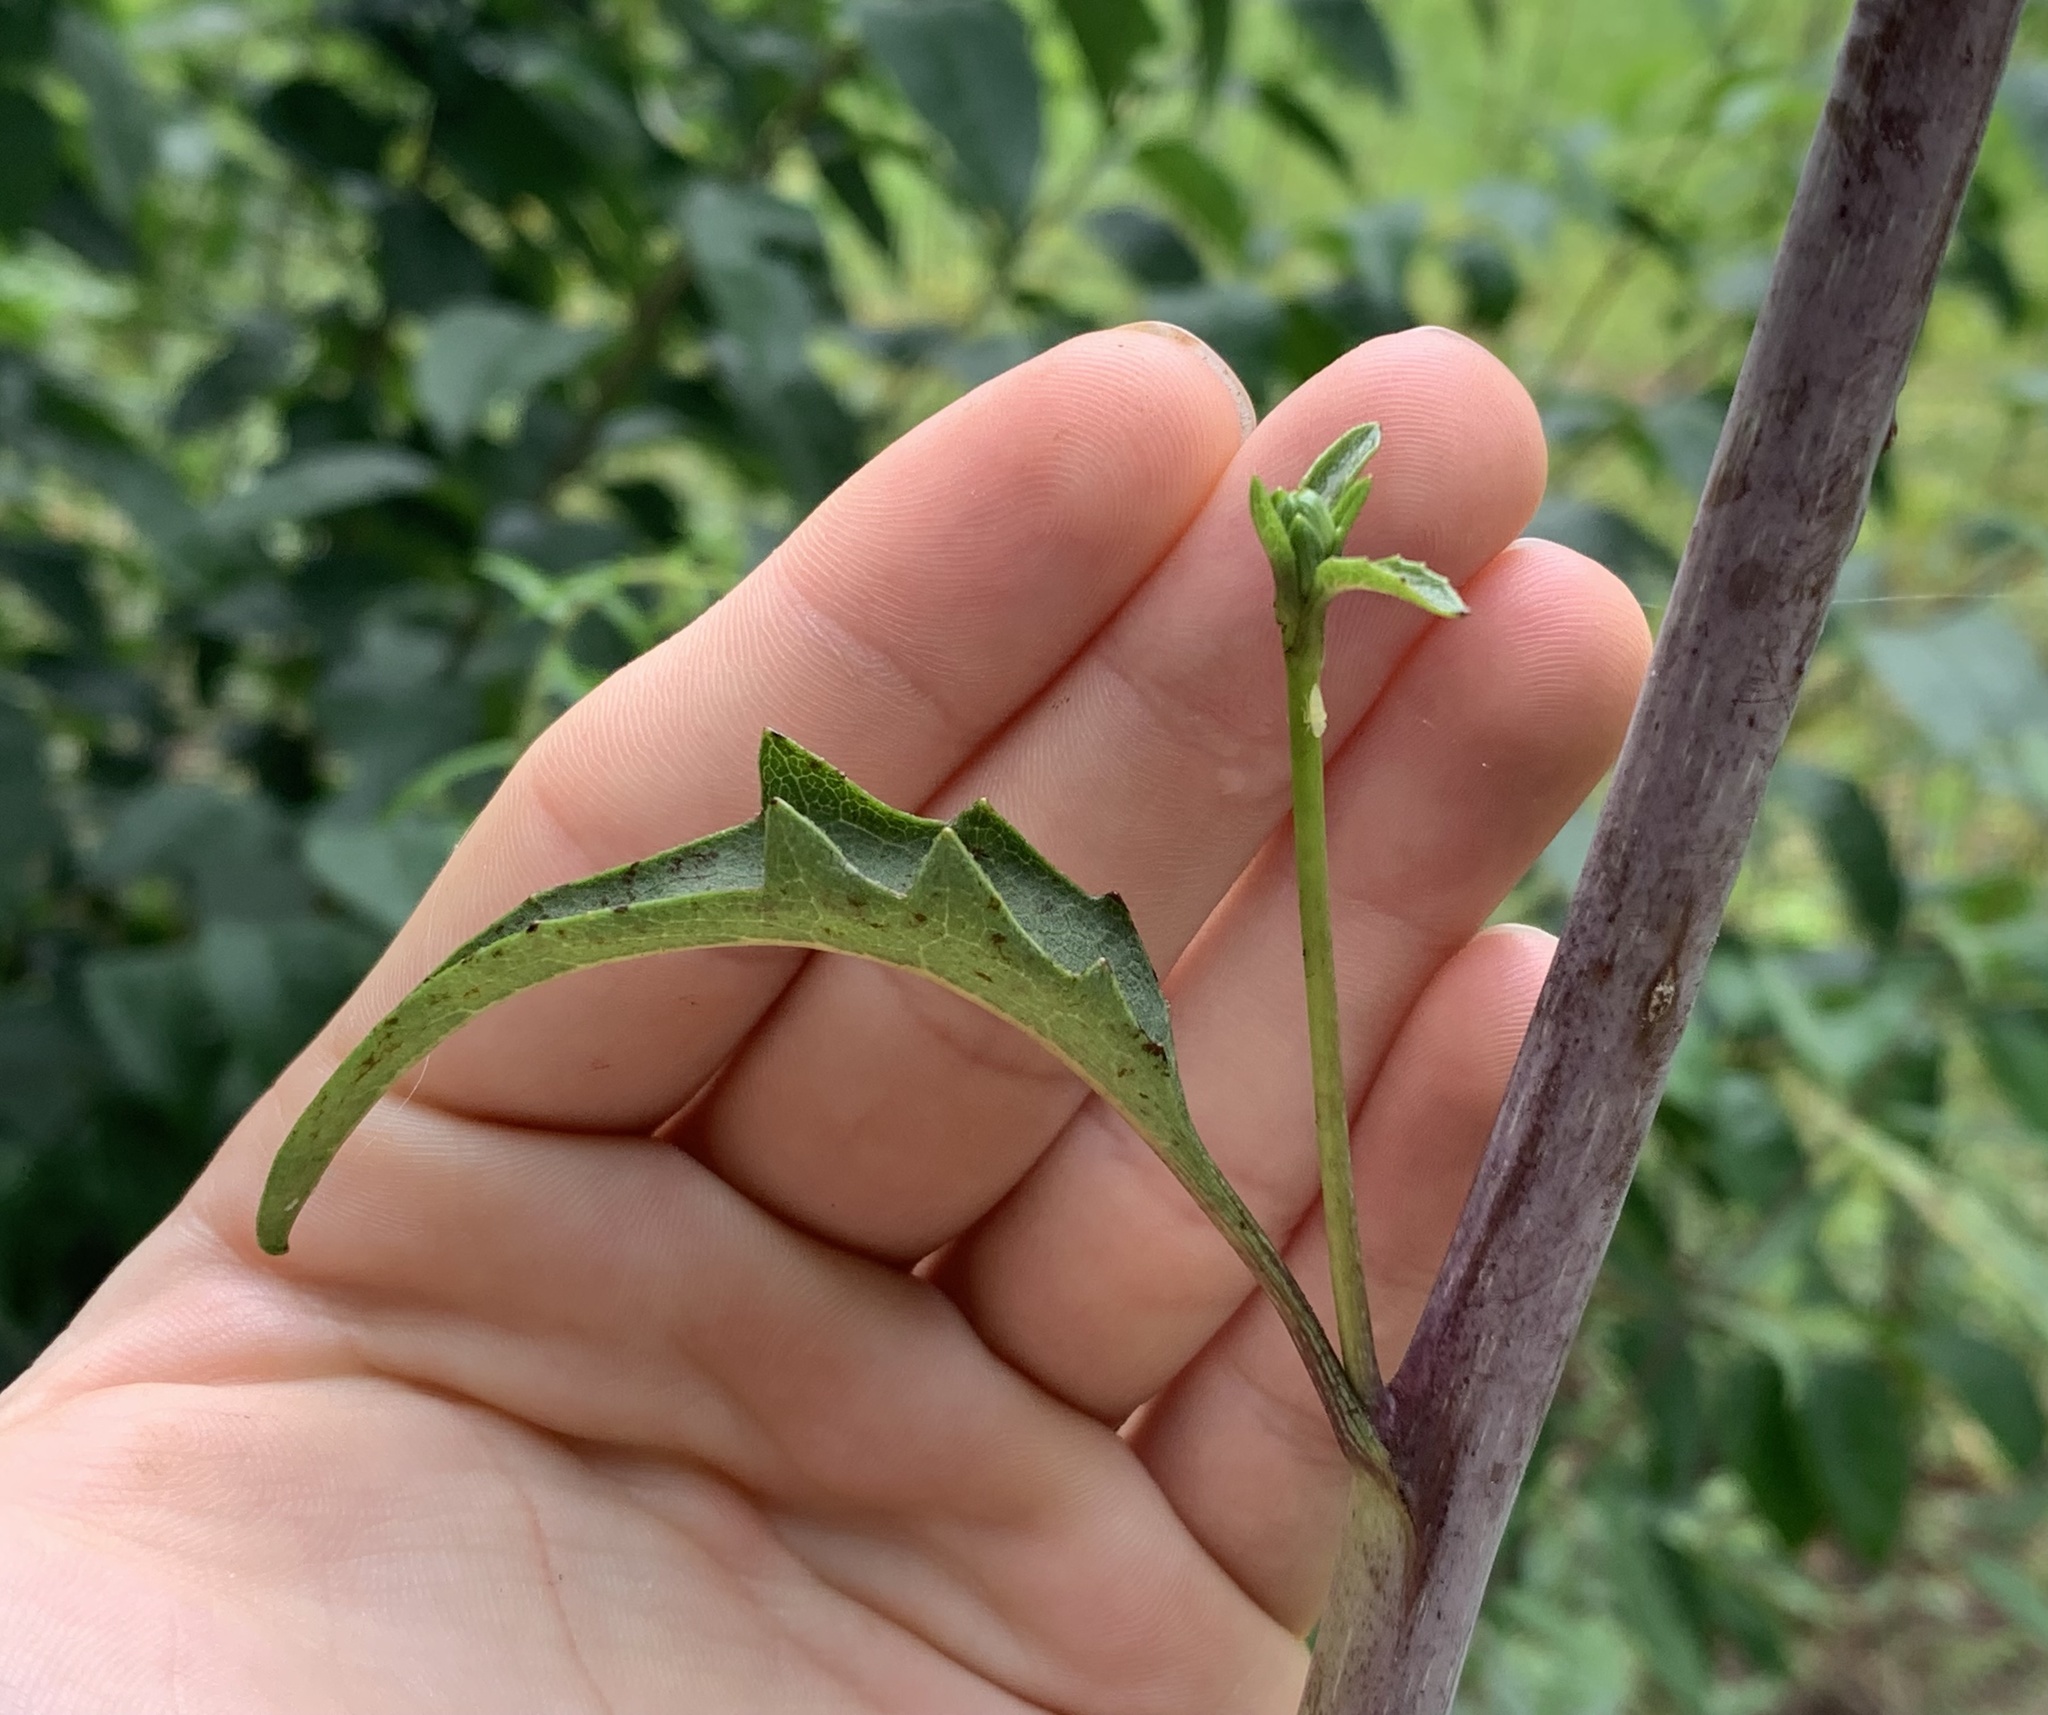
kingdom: Plantae
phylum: Tracheophyta
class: Magnoliopsida
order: Asterales
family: Asteraceae
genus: Silphium
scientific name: Silphium compositum
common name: Lesser basal-leaf rosinweed
